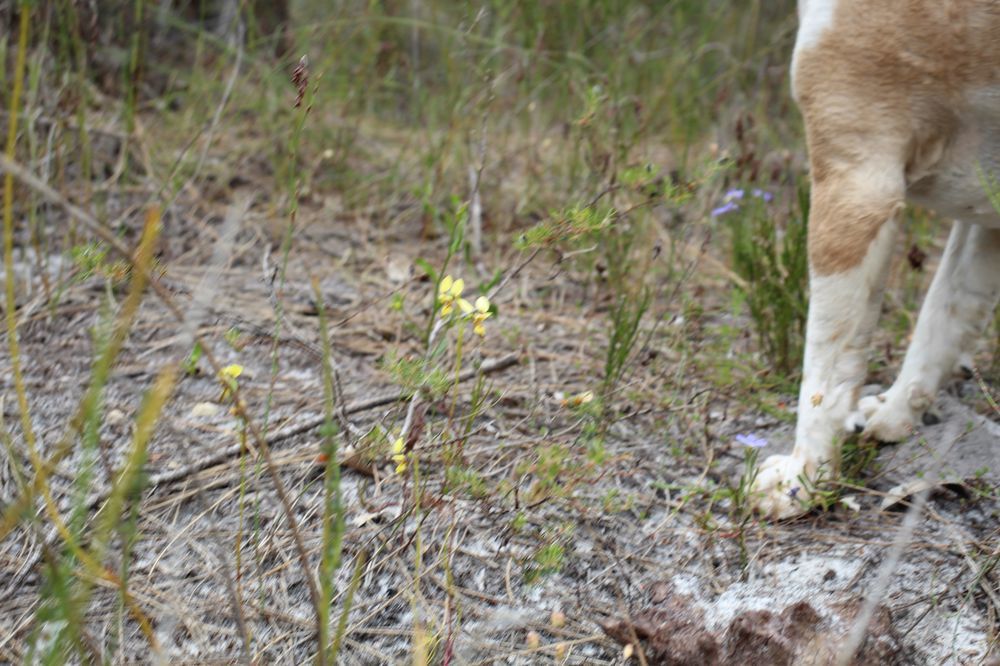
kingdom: Plantae
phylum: Tracheophyta
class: Liliopsida
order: Asparagales
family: Orchidaceae
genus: Diuris
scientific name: Diuris setacea
